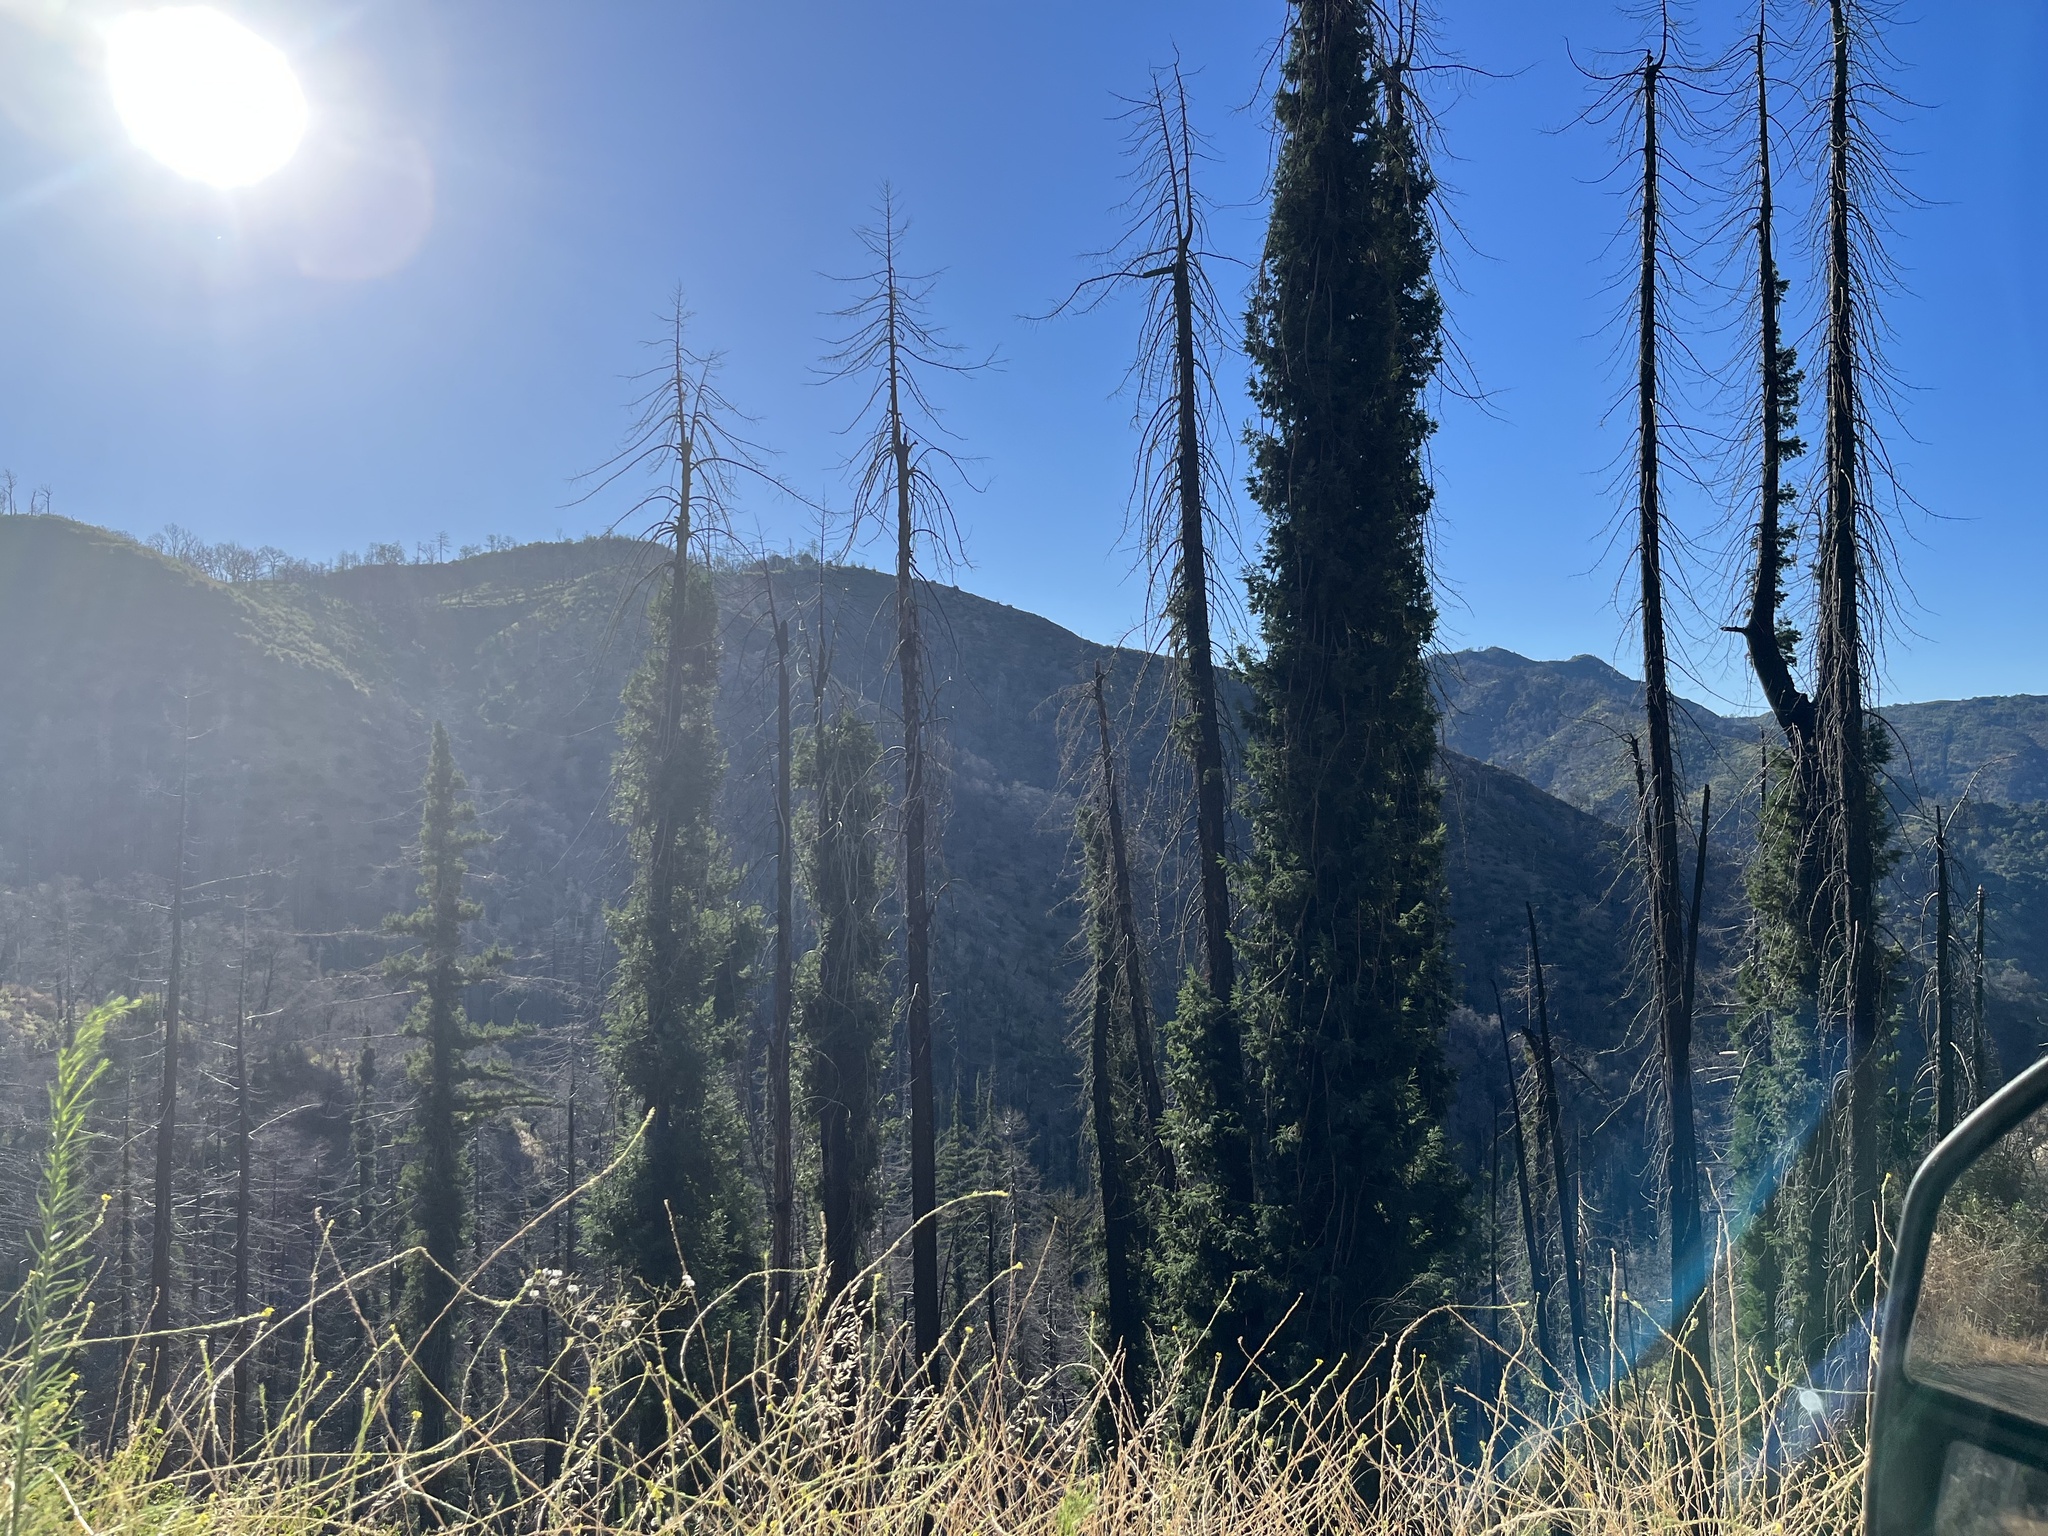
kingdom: Plantae
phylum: Tracheophyta
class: Pinopsida
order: Pinales
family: Cupressaceae
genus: Sequoia
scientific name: Sequoia sempervirens
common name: Coast redwood
